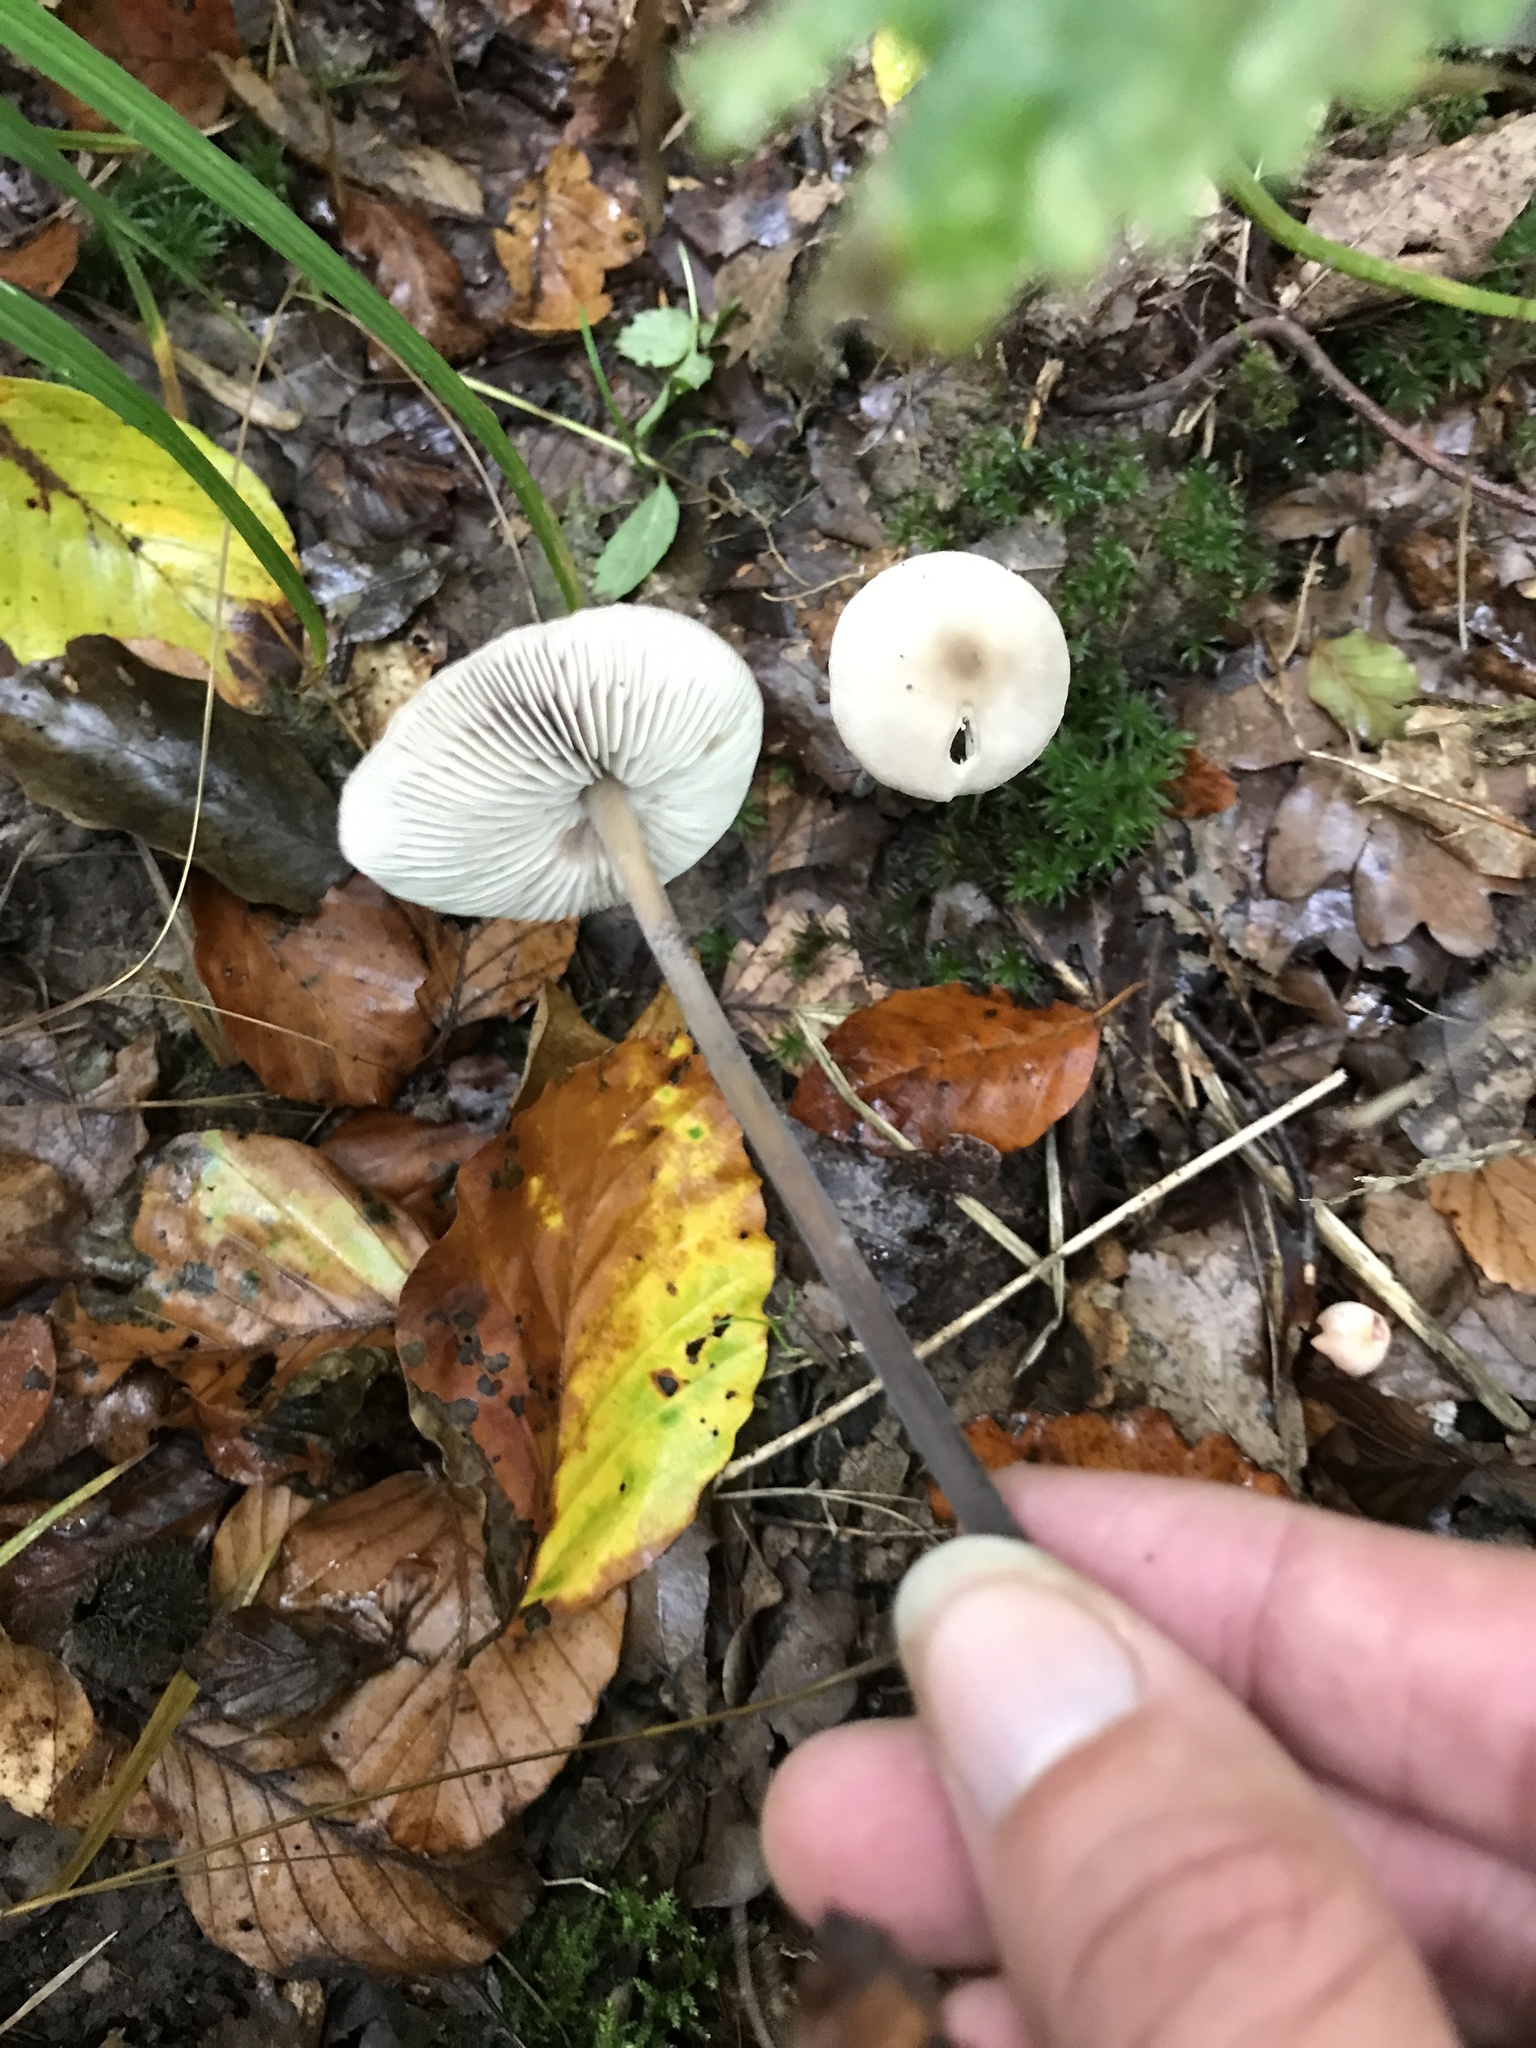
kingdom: Fungi
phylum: Basidiomycota
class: Agaricomycetes
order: Agaricales
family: Omphalotaceae
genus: Mycetinis
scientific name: Mycetinis alliaceus
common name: Garlic parachute
